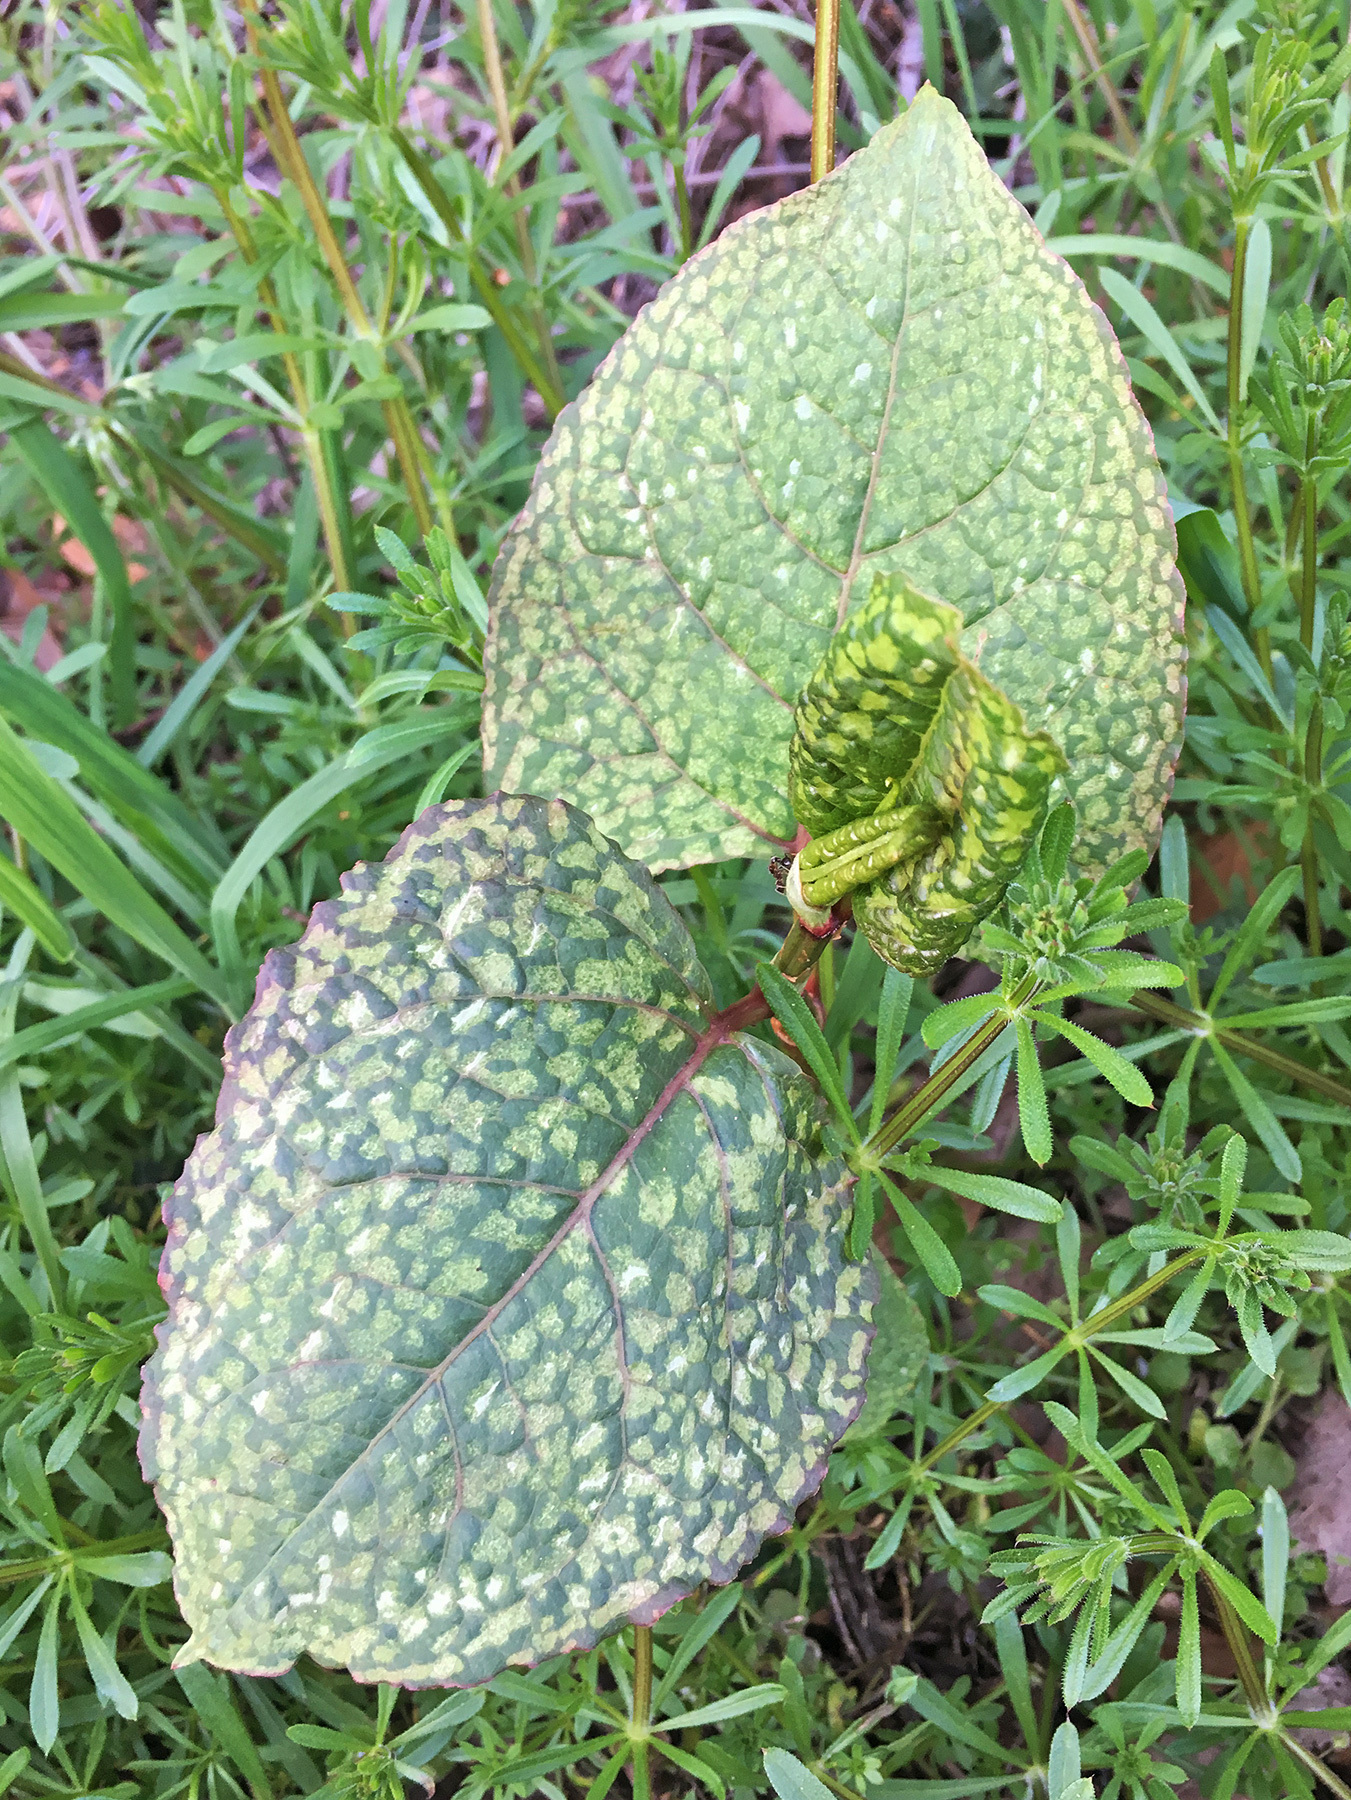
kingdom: Plantae
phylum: Tracheophyta
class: Magnoliopsida
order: Caryophyllales
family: Polygonaceae
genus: Reynoutria
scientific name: Reynoutria japonica
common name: Japanese knotweed
